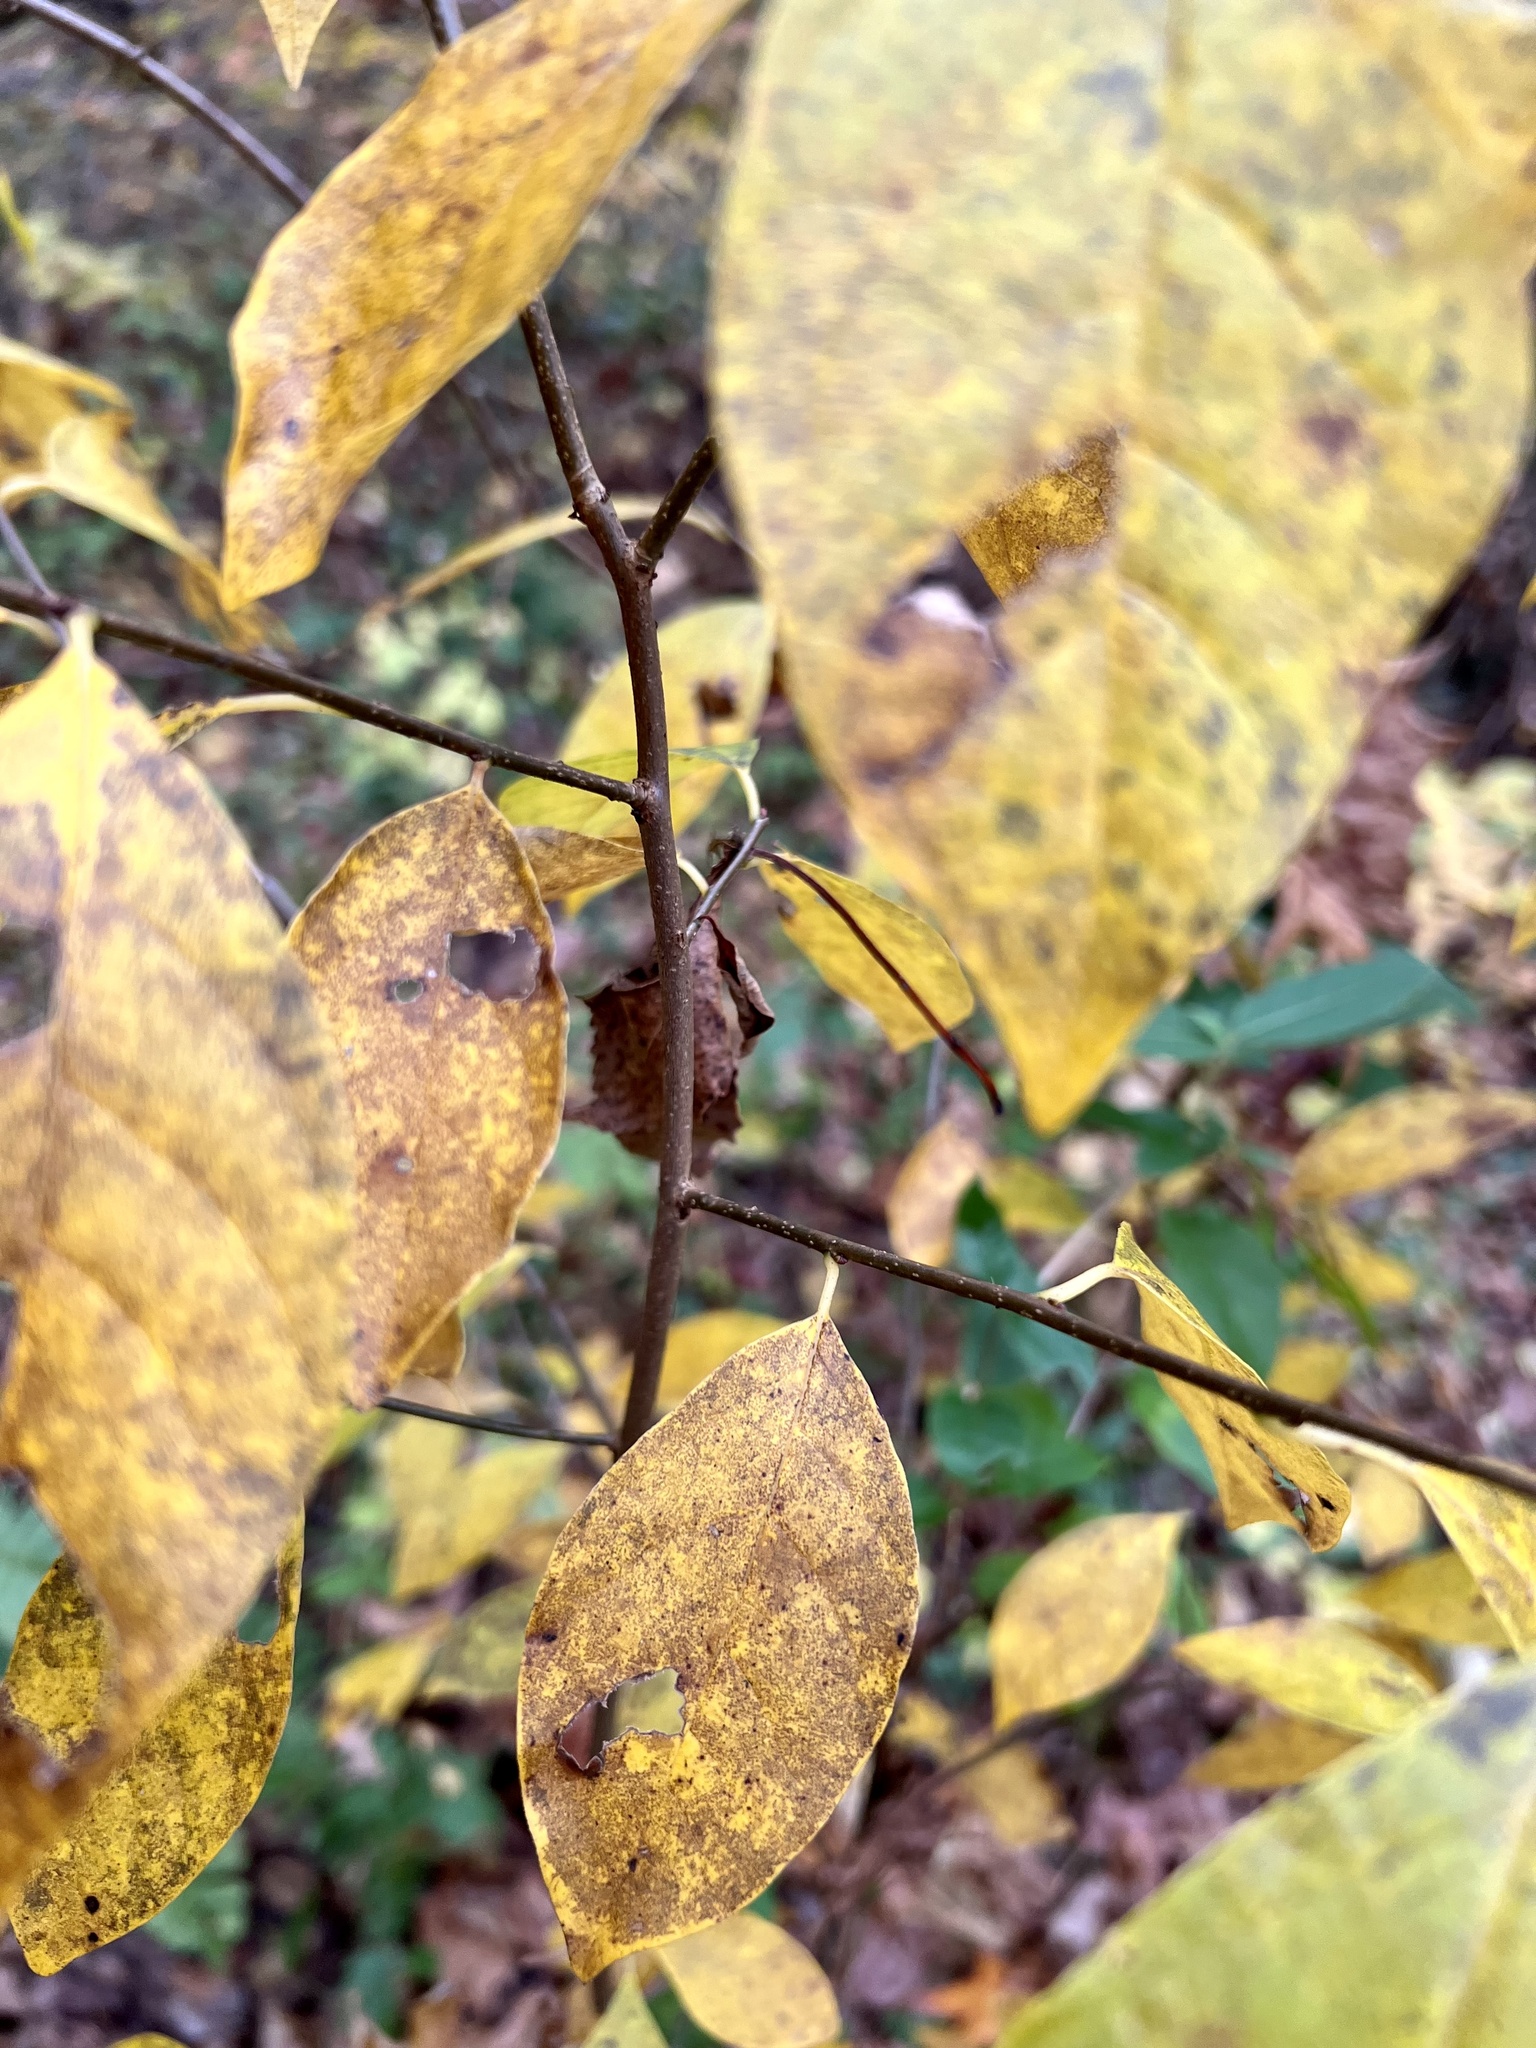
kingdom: Plantae
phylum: Tracheophyta
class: Magnoliopsida
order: Laurales
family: Lauraceae
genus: Lindera
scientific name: Lindera benzoin
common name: Spicebush
